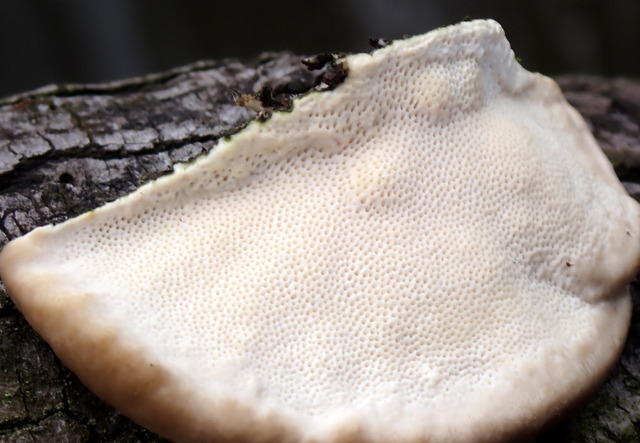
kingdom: Fungi
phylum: Basidiomycota
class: Agaricomycetes
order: Polyporales
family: Polyporaceae
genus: Trametes
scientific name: Trametes lactinea
